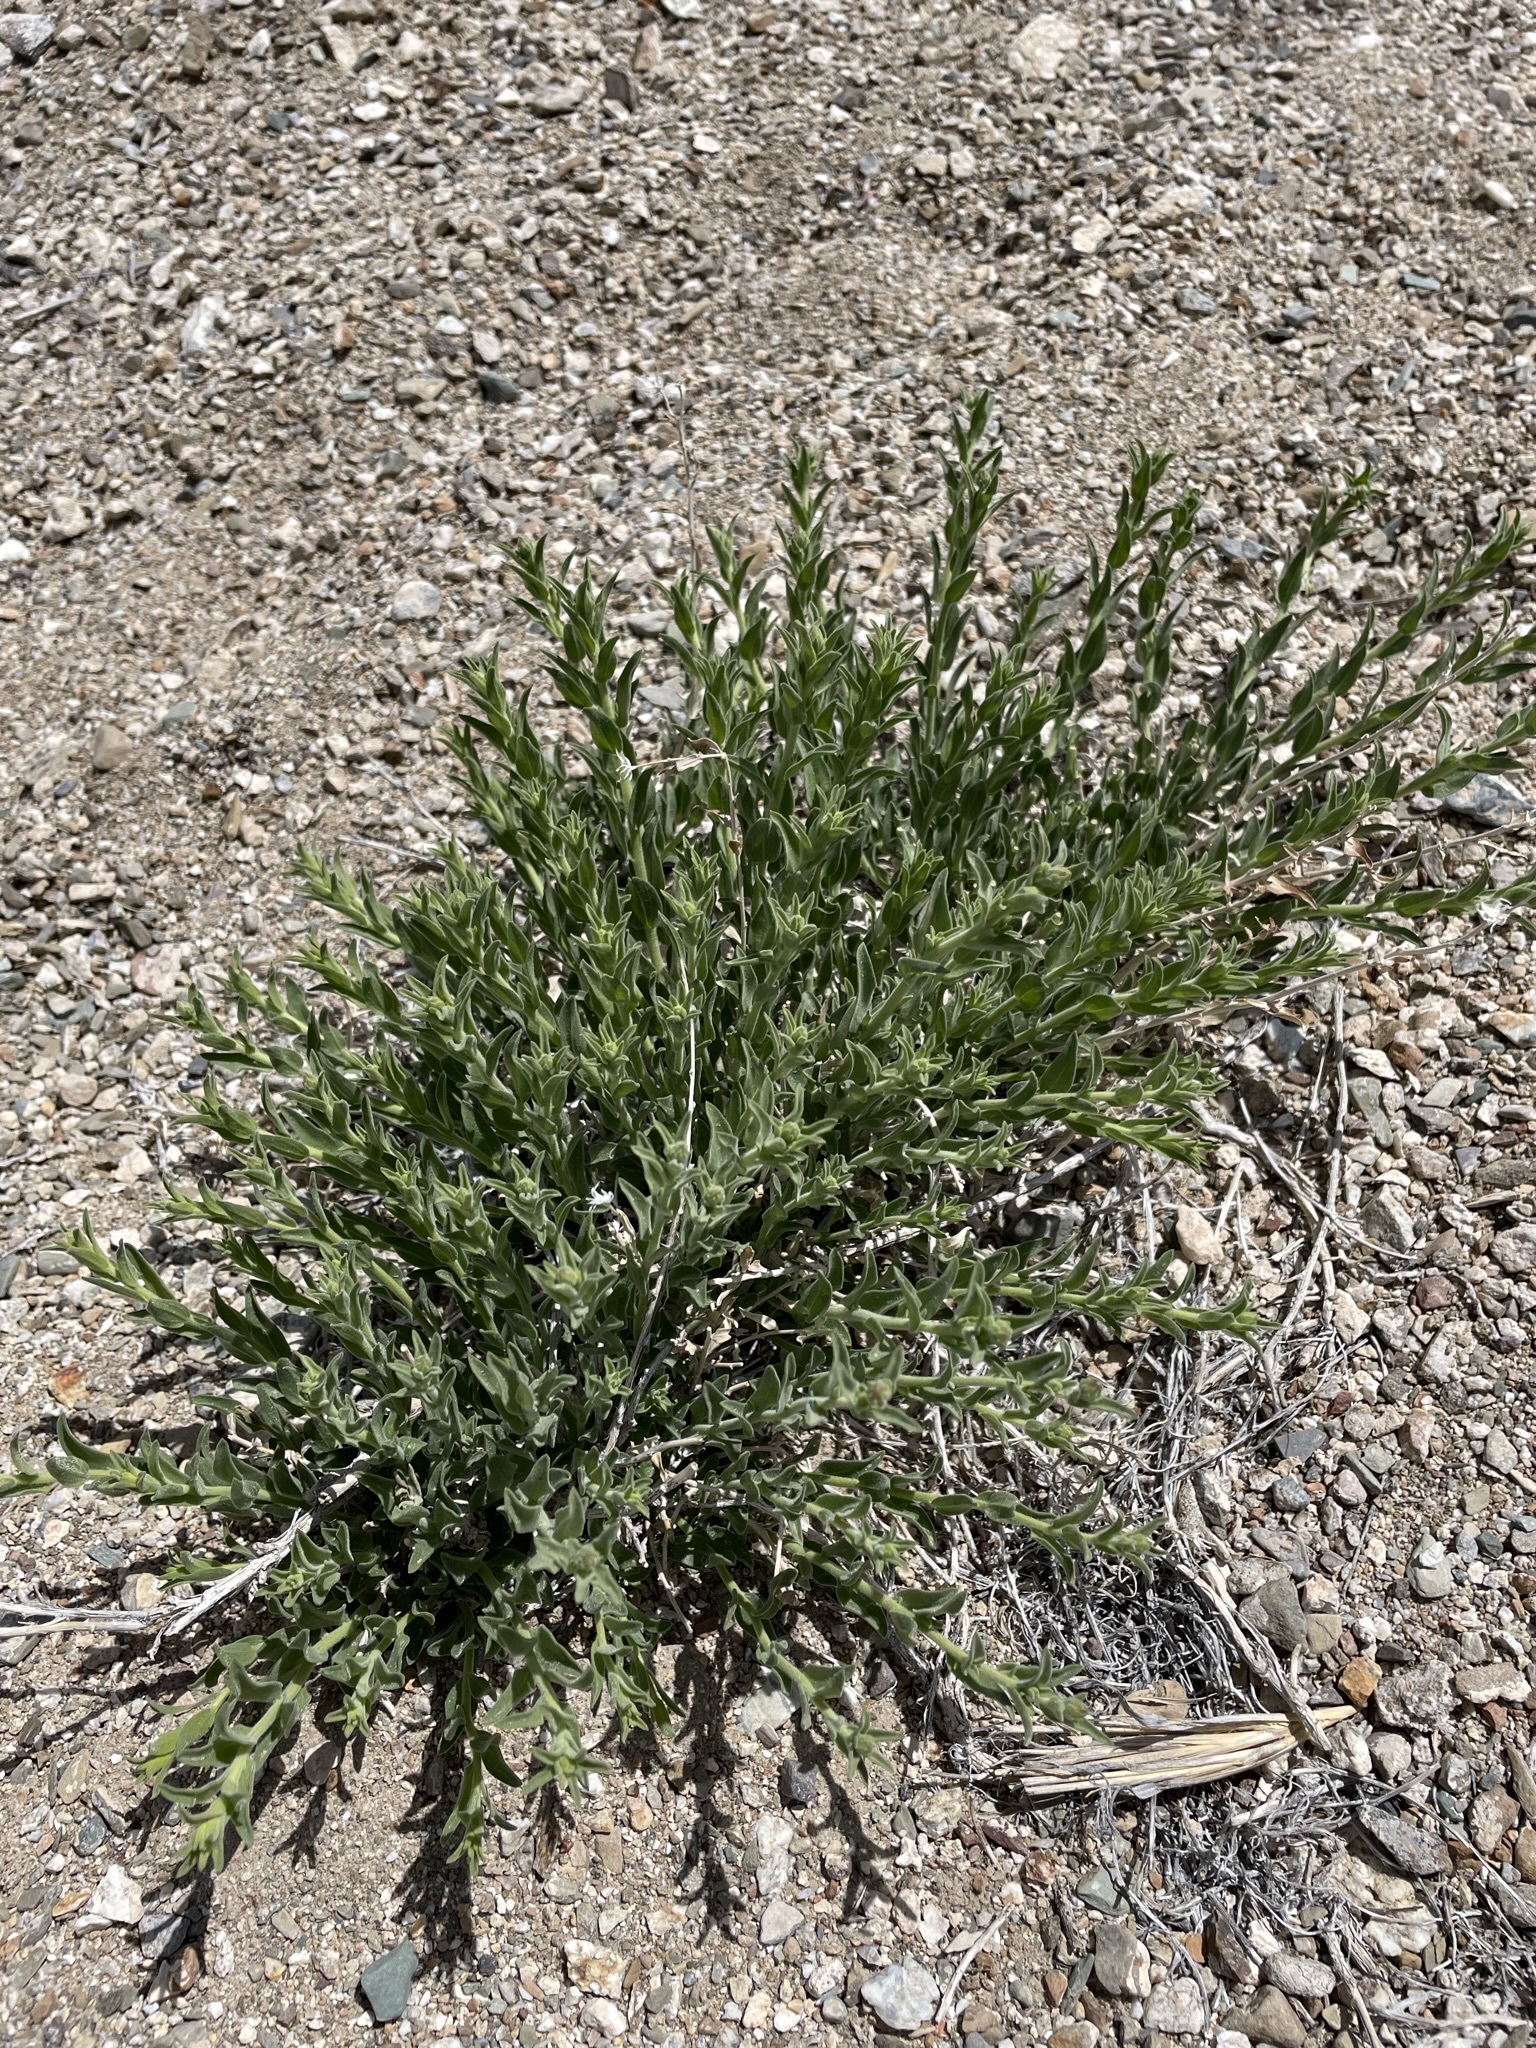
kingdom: Plantae
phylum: Tracheophyta
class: Magnoliopsida
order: Asterales
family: Asteraceae
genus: Brickellia
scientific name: Brickellia oblongifolia
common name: Mojave brickellbush
